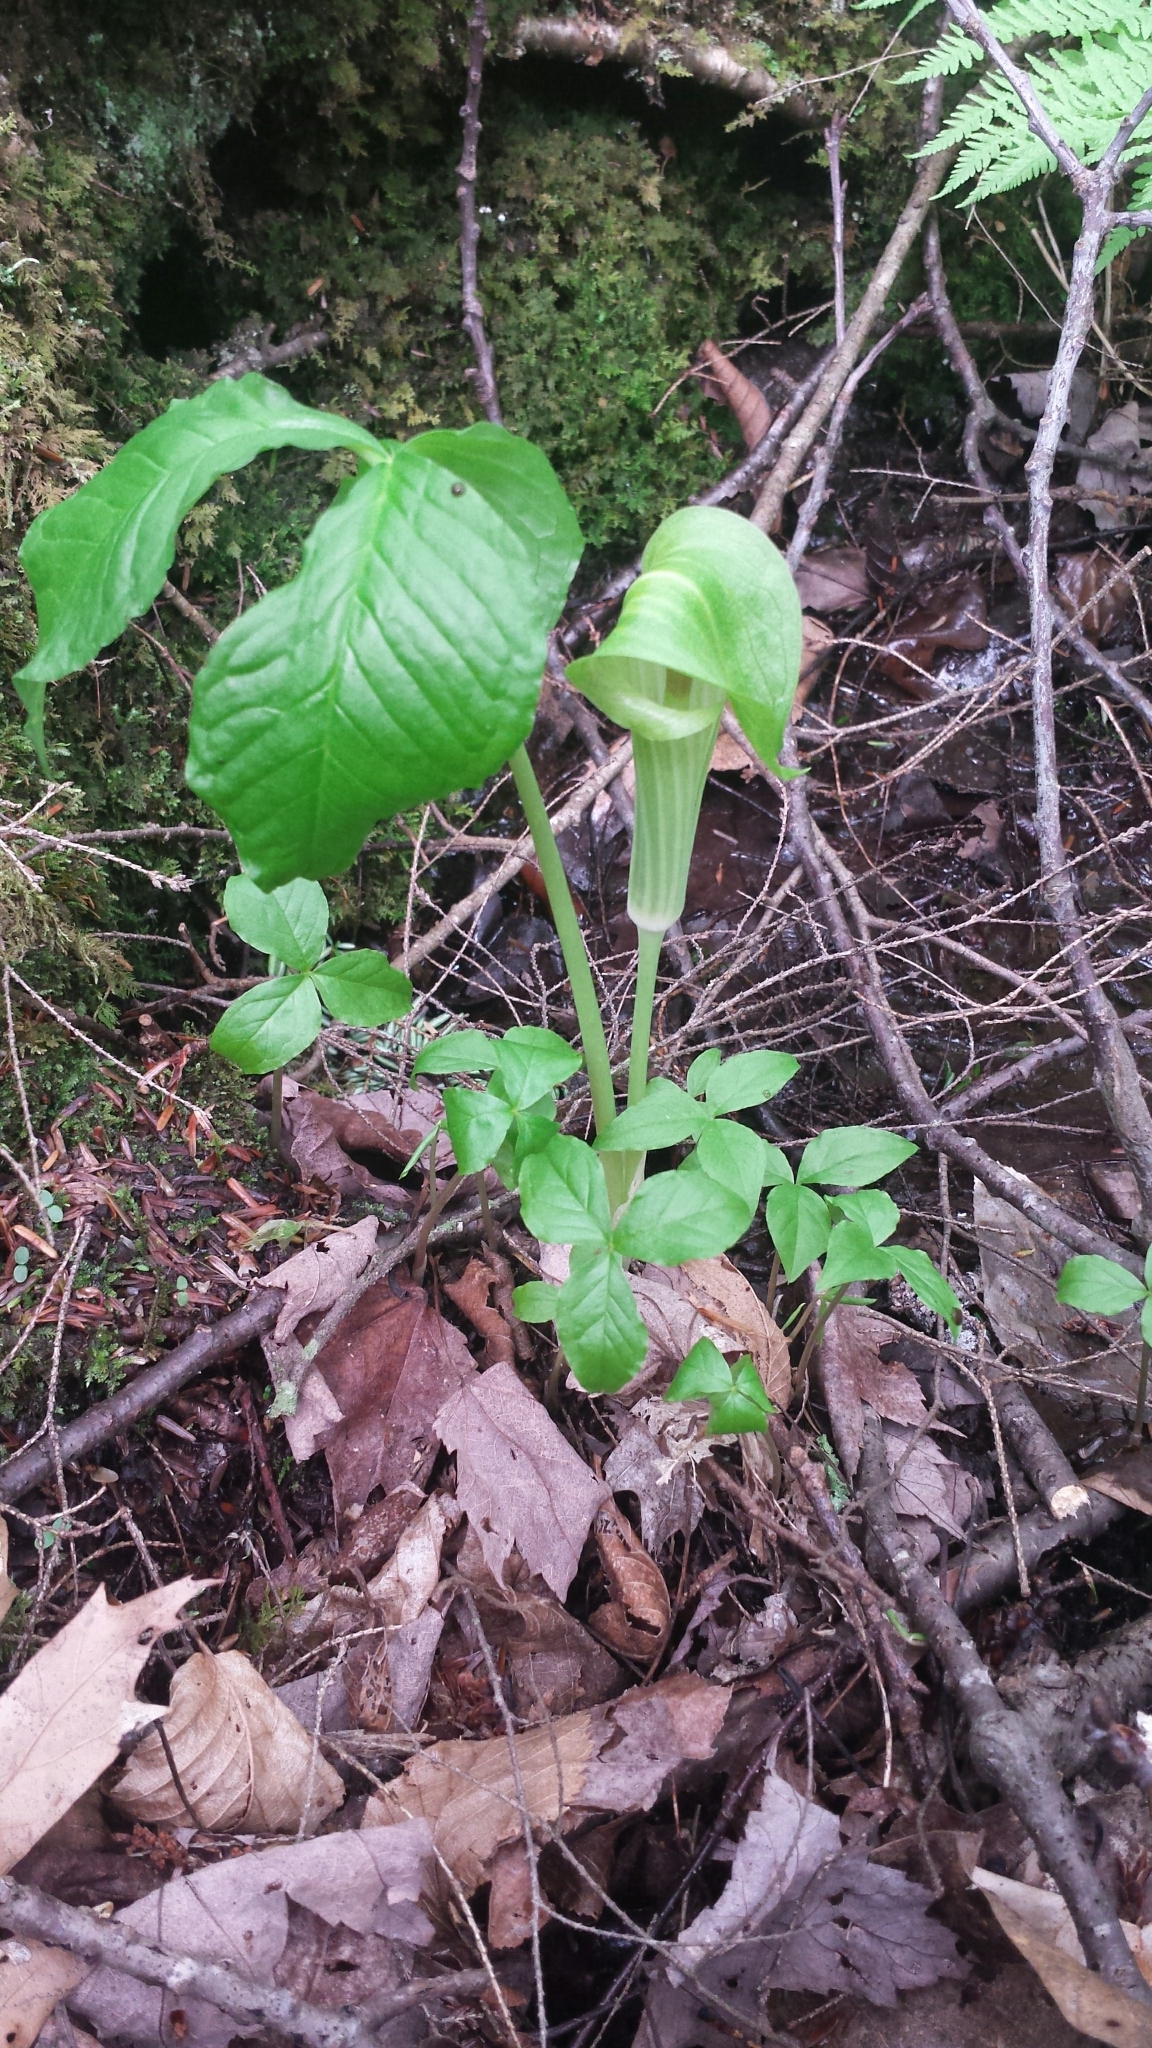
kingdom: Plantae
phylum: Tracheophyta
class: Liliopsida
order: Alismatales
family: Araceae
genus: Arisaema
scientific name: Arisaema triphyllum
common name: Jack-in-the-pulpit
